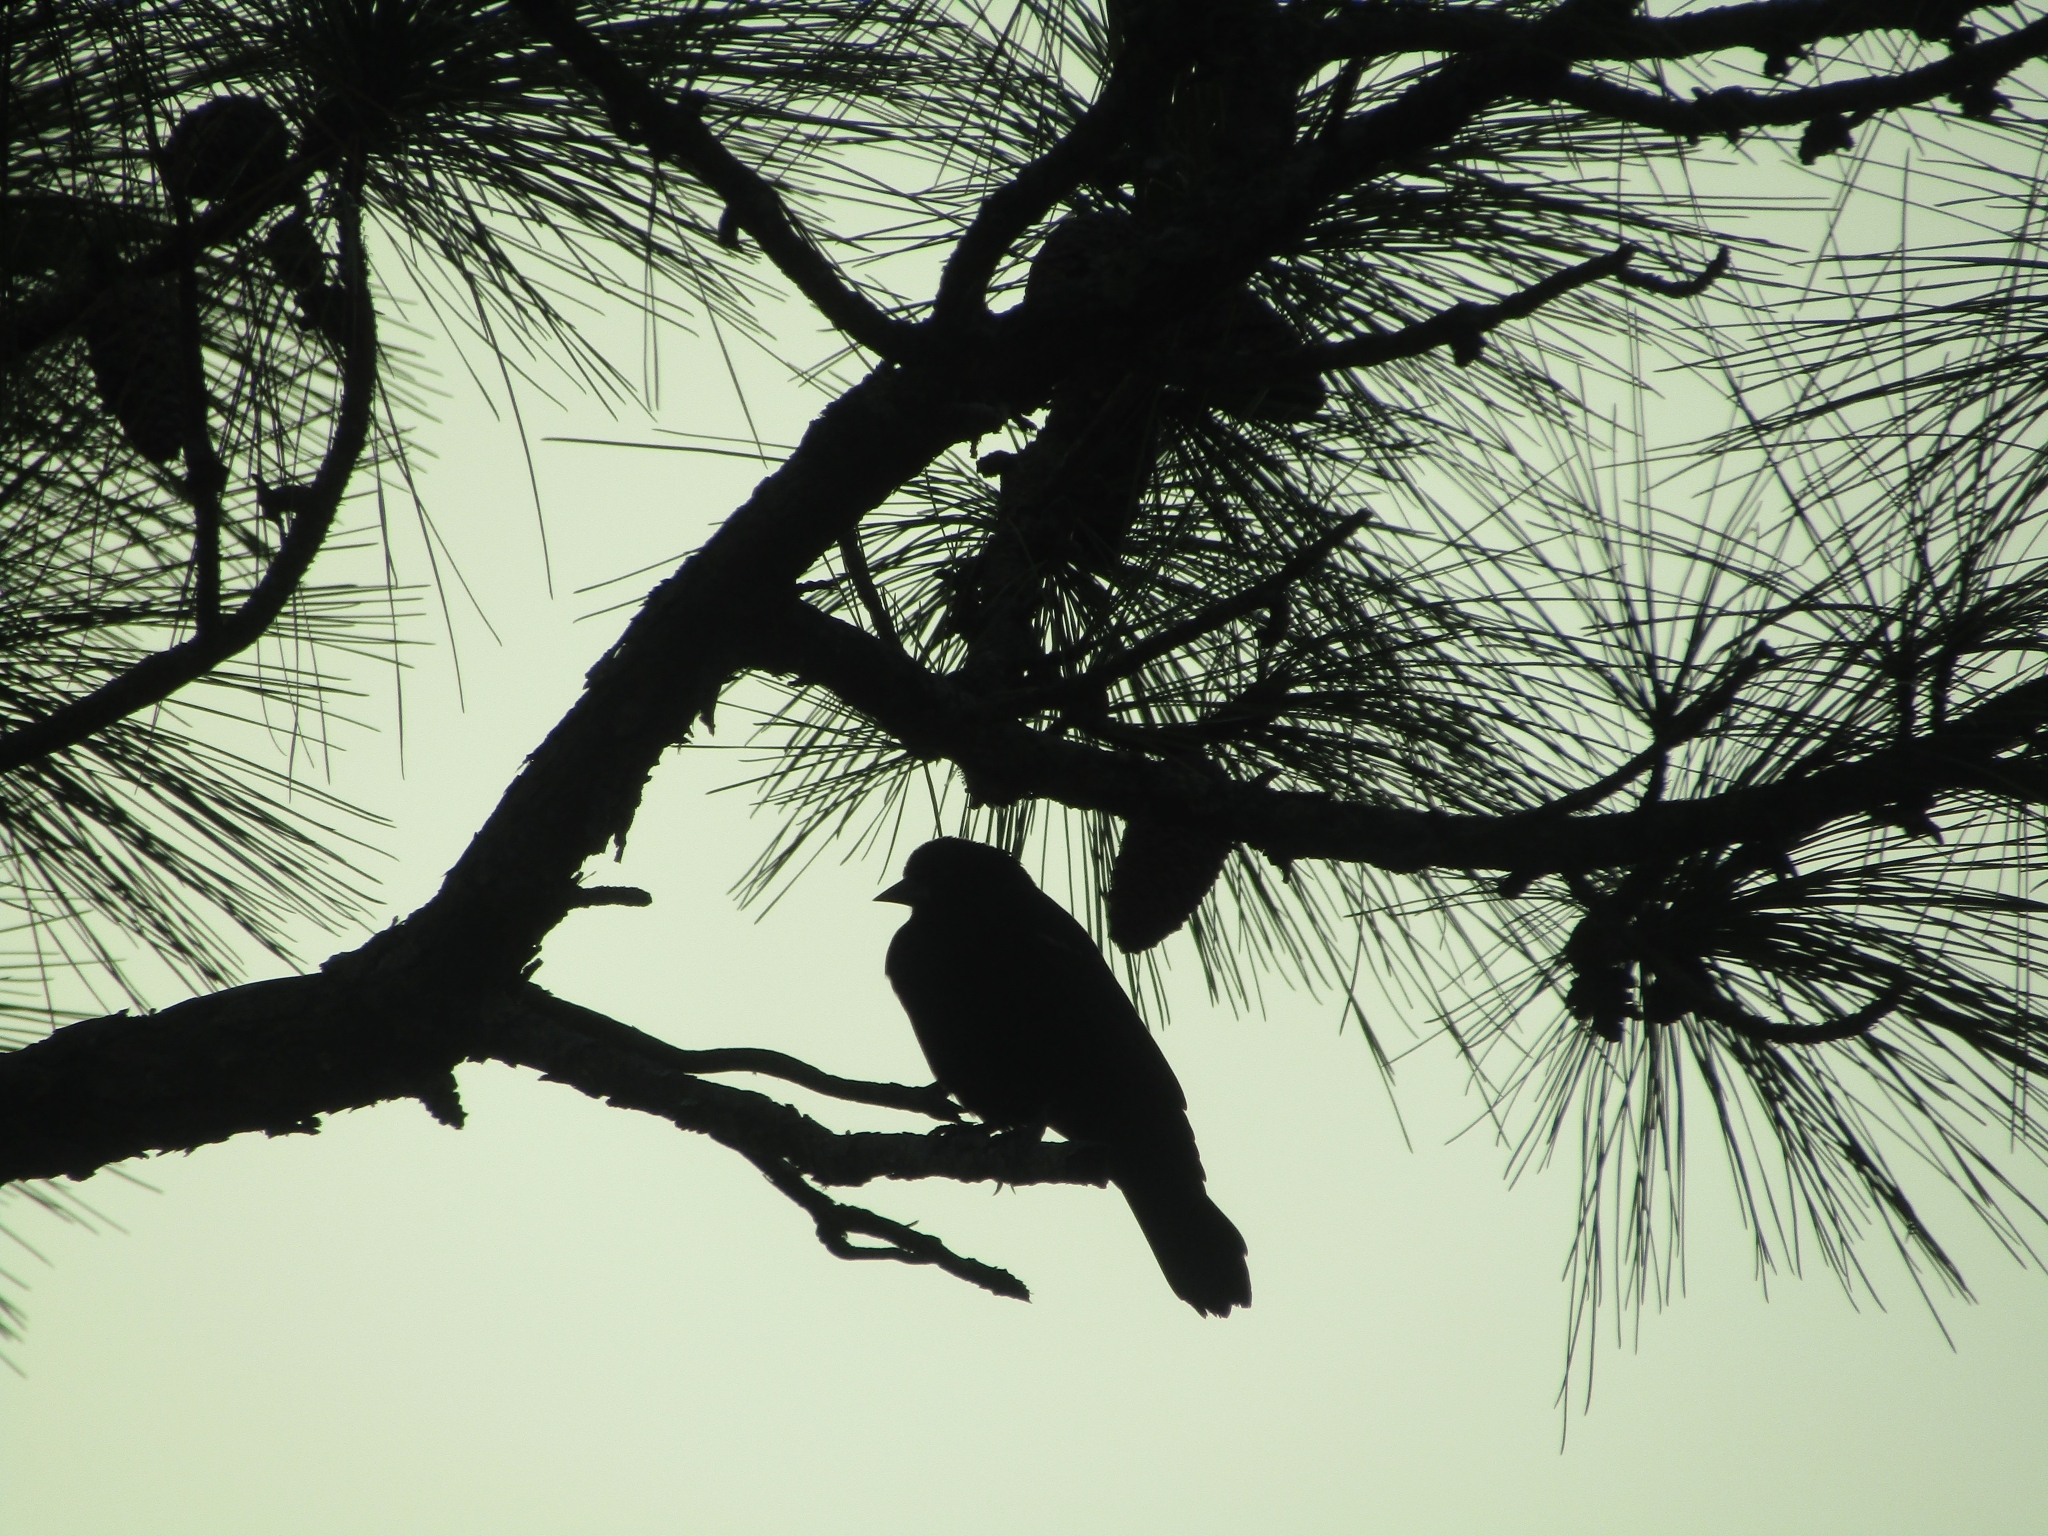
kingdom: Animalia
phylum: Chordata
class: Aves
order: Passeriformes
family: Icteridae
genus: Agelaius
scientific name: Agelaius phoeniceus
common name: Red-winged blackbird
